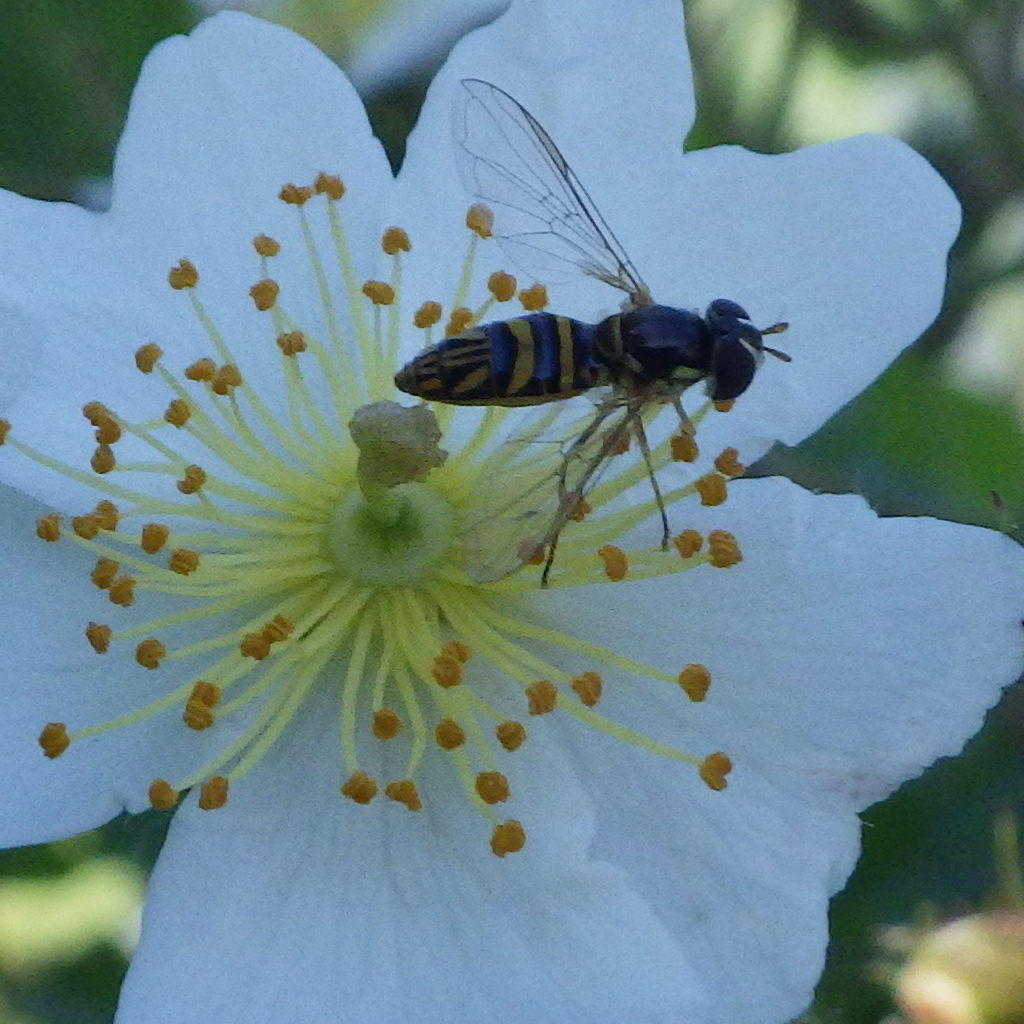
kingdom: Animalia
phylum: Arthropoda
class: Insecta
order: Diptera
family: Syrphidae
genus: Allograpta
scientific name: Allograpta obliqua
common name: Common oblique syrphid
